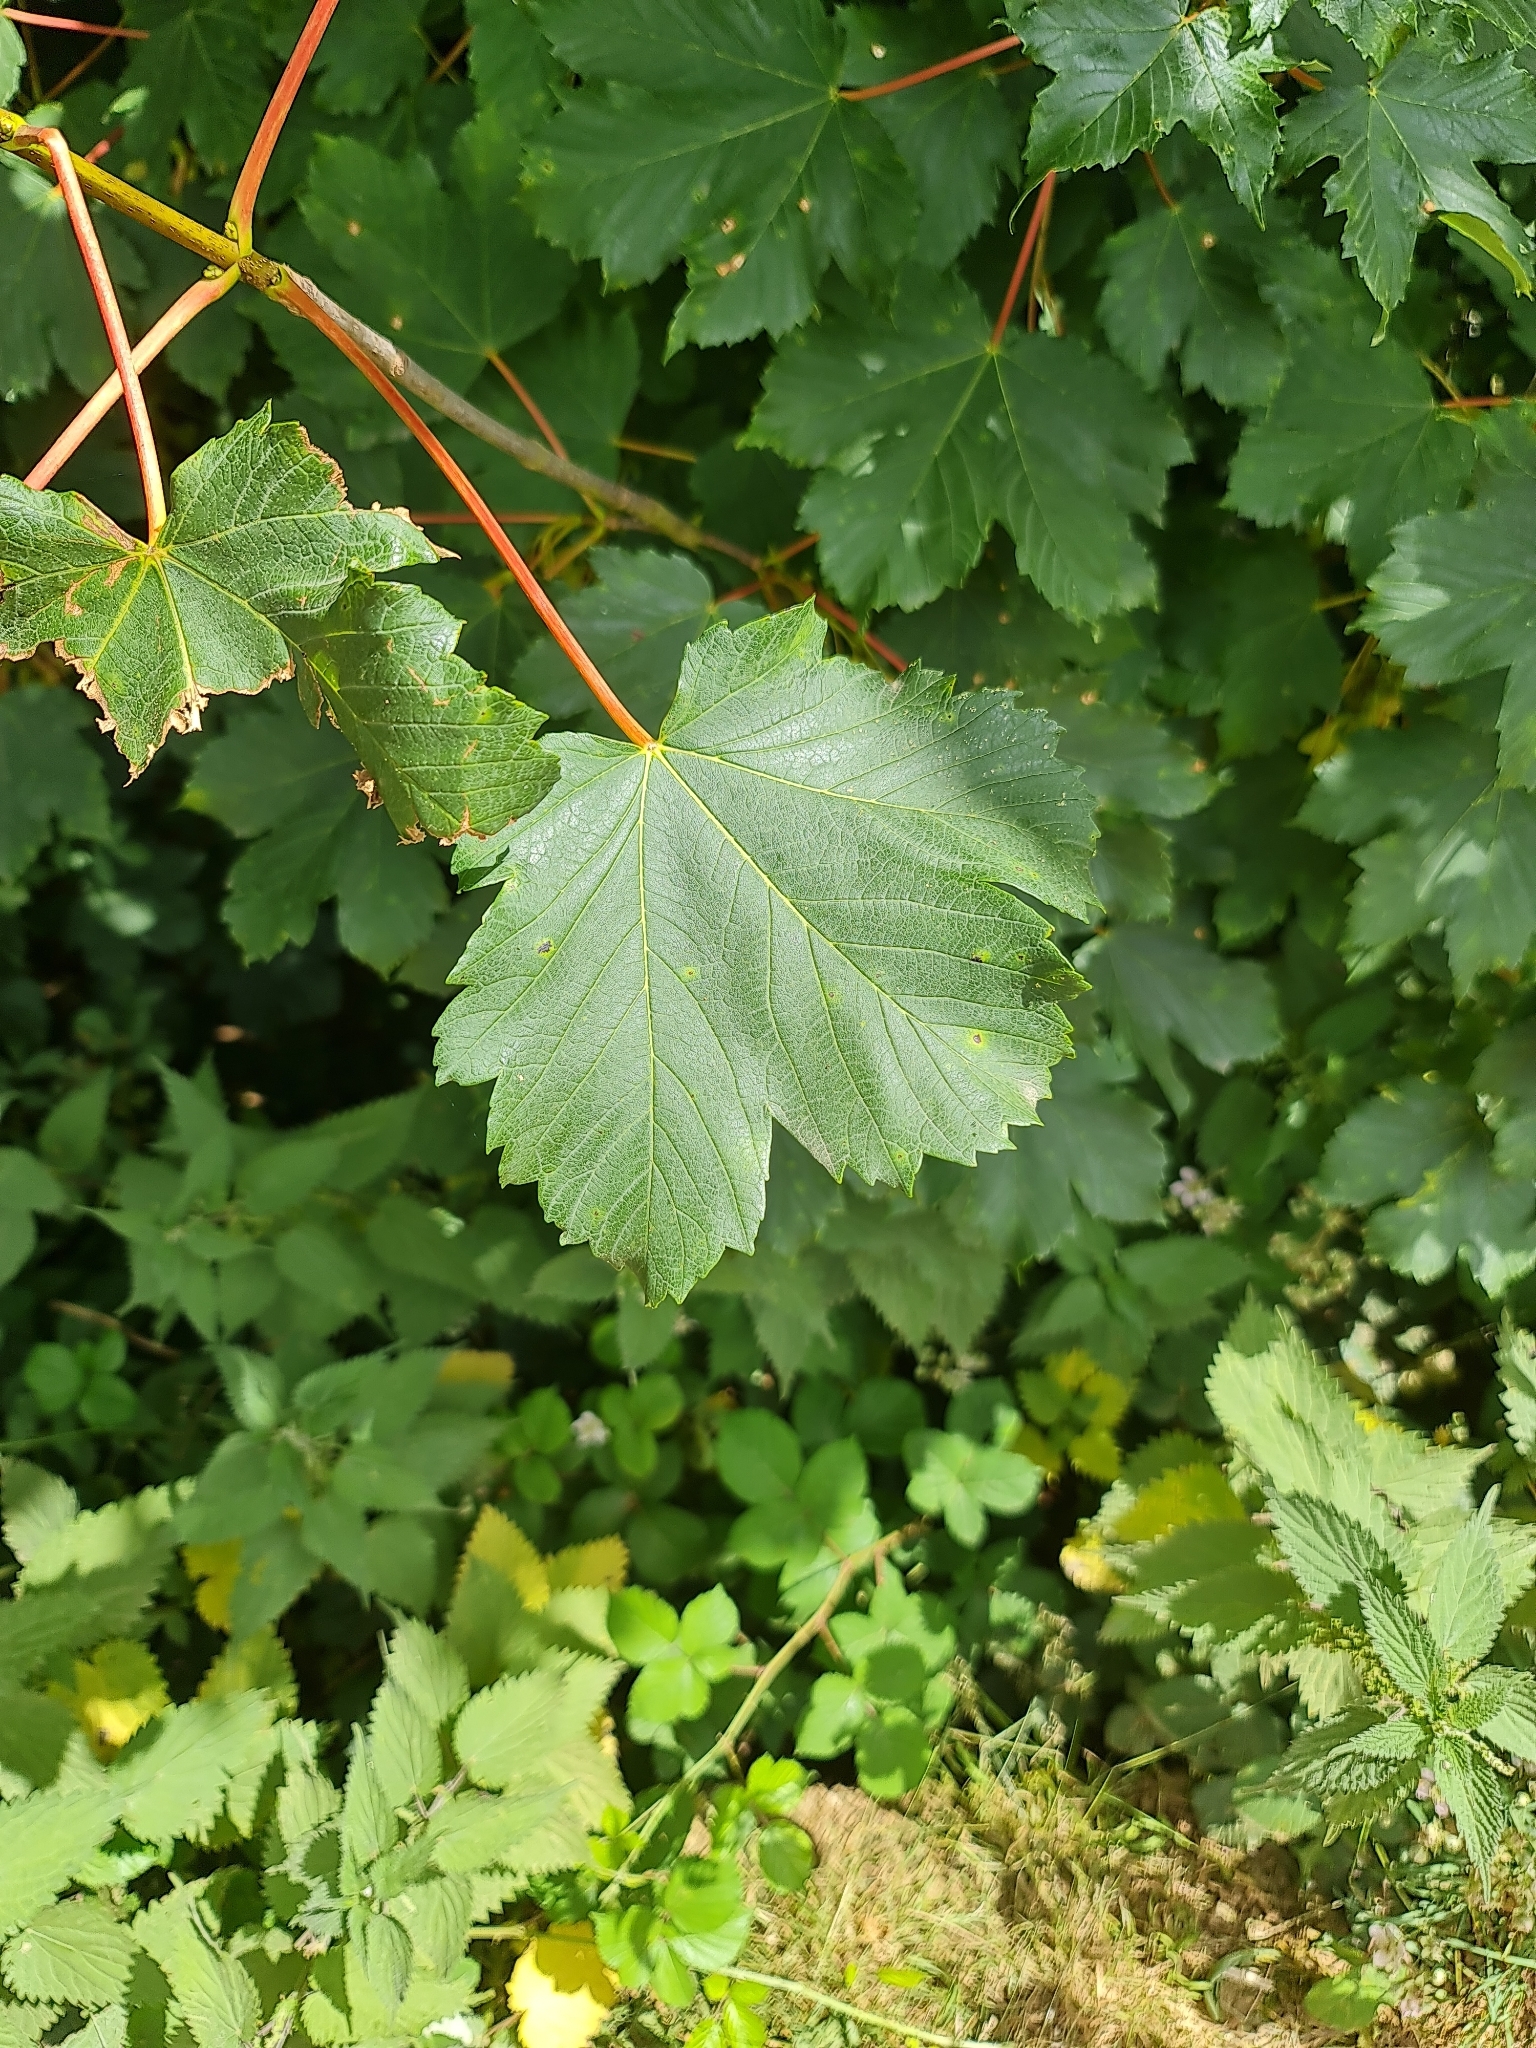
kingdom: Plantae
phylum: Tracheophyta
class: Magnoliopsida
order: Sapindales
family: Sapindaceae
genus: Acer
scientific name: Acer pseudoplatanus
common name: Sycamore
